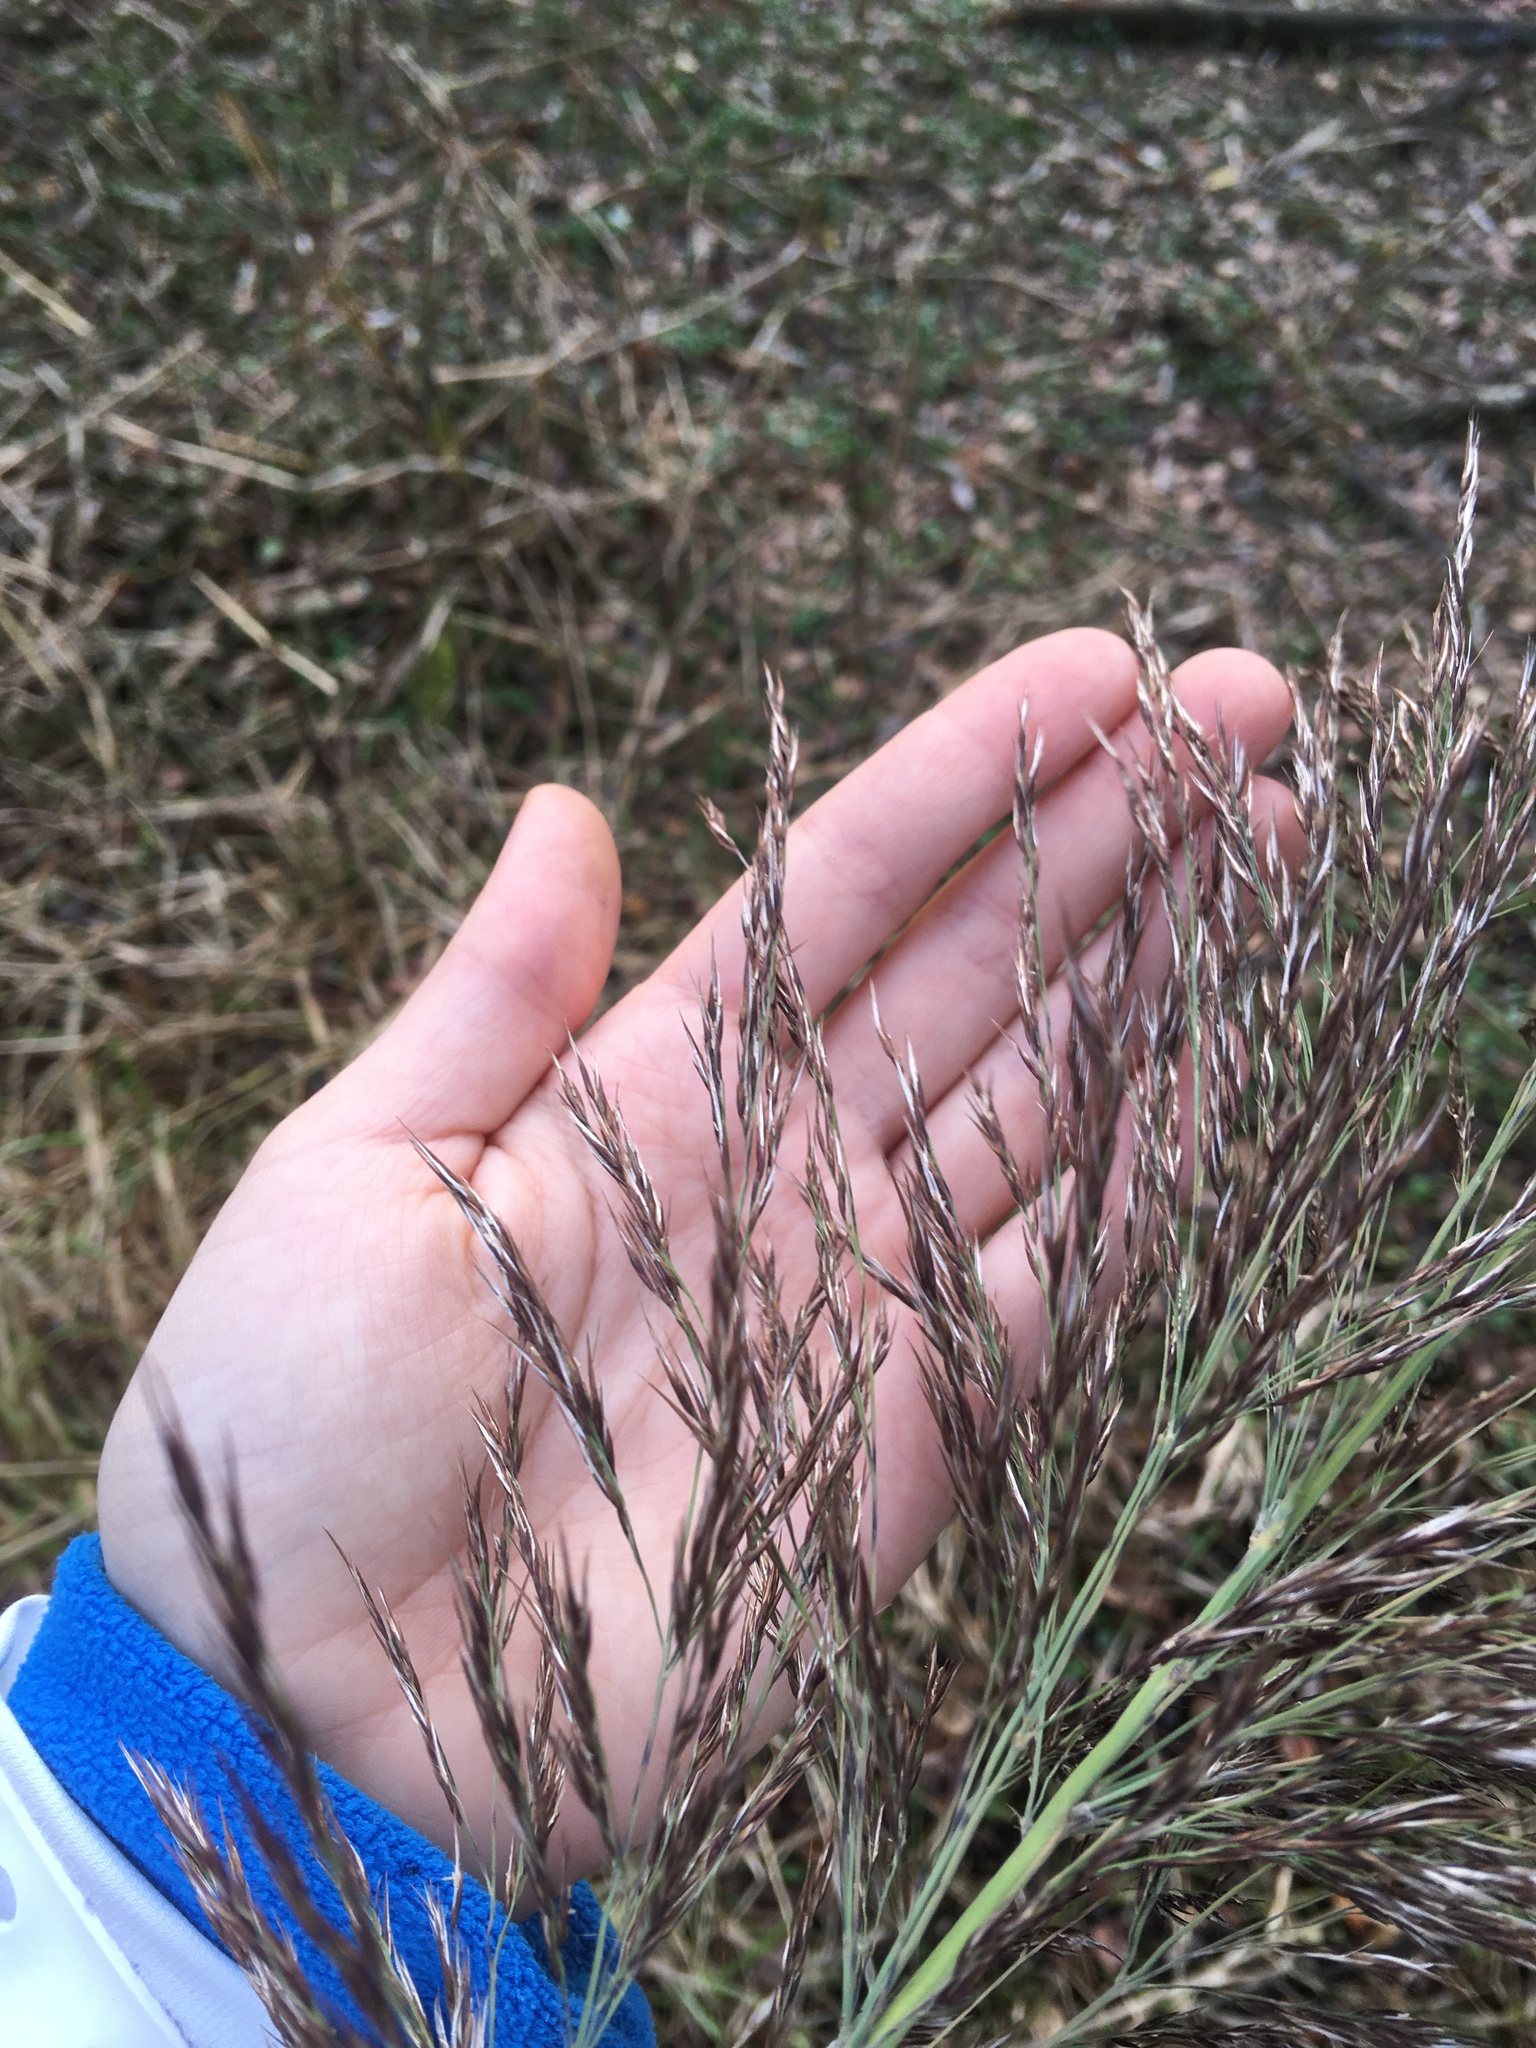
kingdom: Plantae
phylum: Tracheophyta
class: Liliopsida
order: Poales
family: Poaceae
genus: Phragmites
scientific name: Phragmites australis
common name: Common reed
